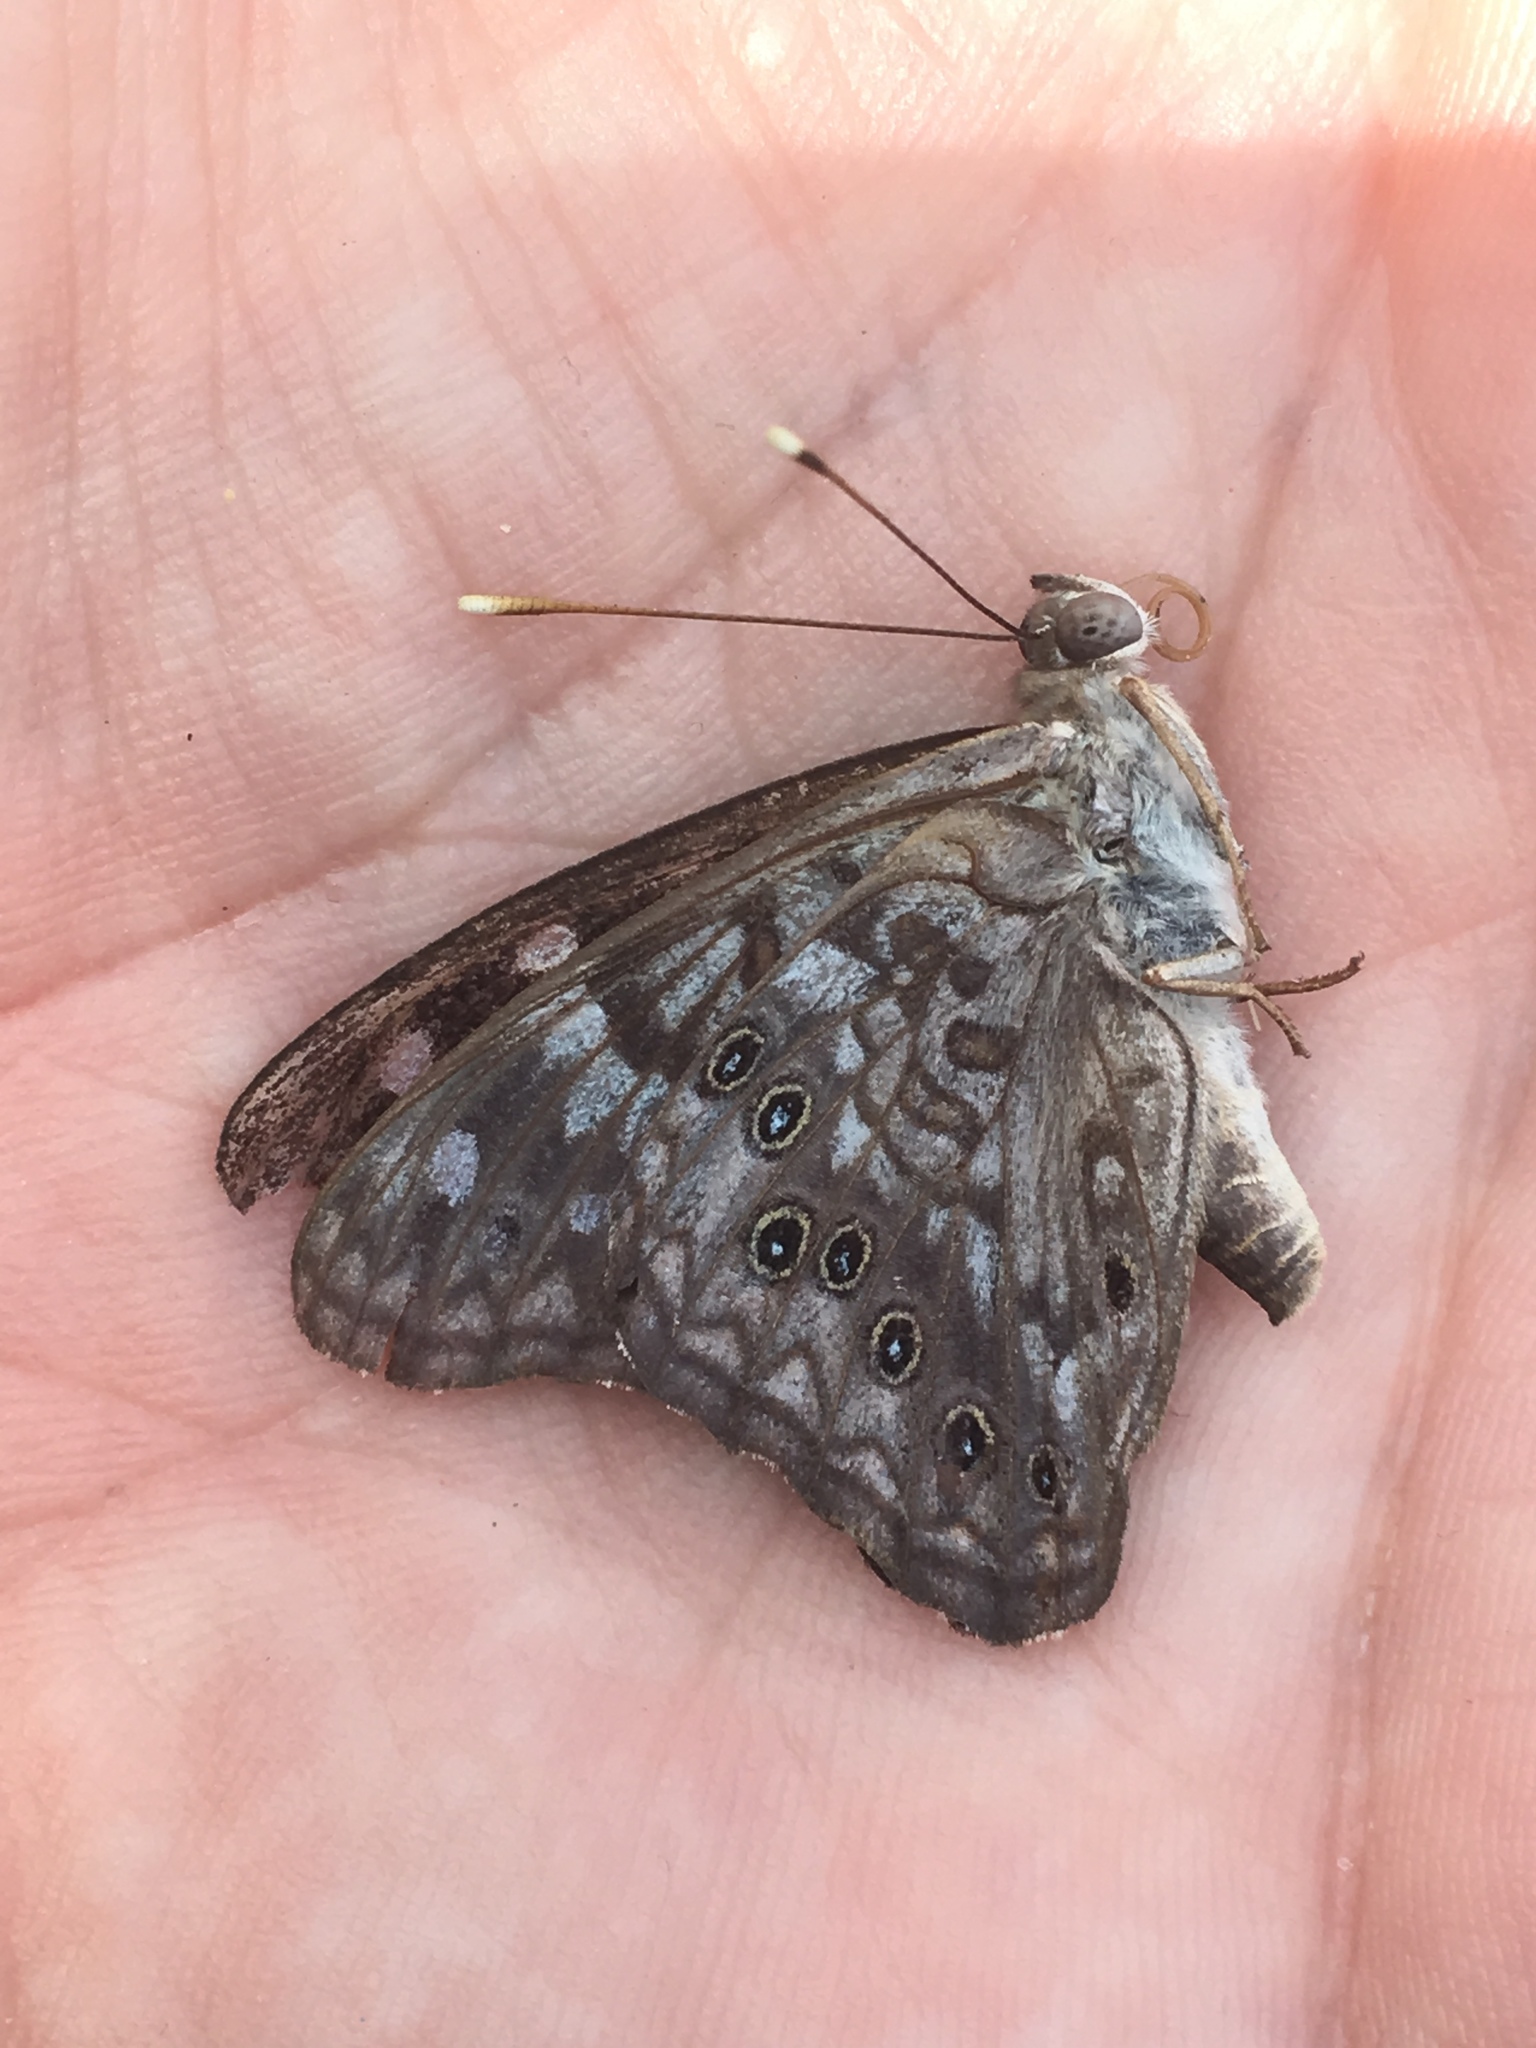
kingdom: Animalia
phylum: Arthropoda
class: Insecta
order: Lepidoptera
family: Nymphalidae
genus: Asterocampa
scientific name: Asterocampa celtis
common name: Hackberry emperor
